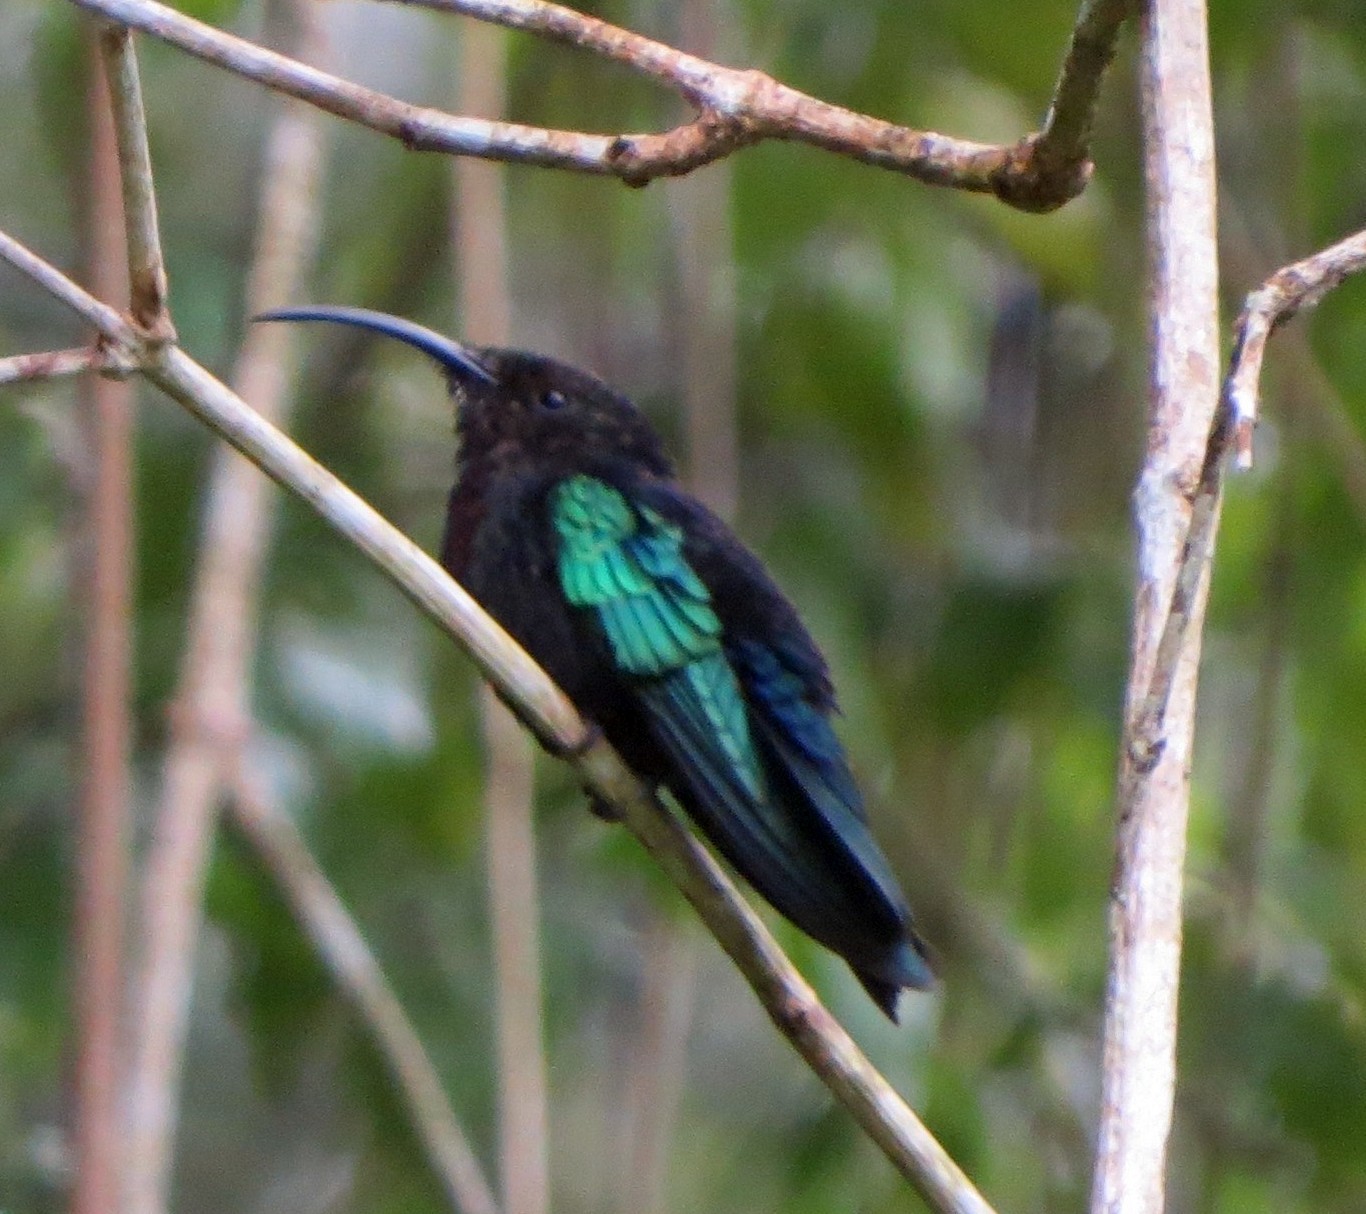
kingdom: Animalia
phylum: Chordata
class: Aves
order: Apodiformes
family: Trochilidae
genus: Eulampis
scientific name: Eulampis jugularis
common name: Purple-throated carib
